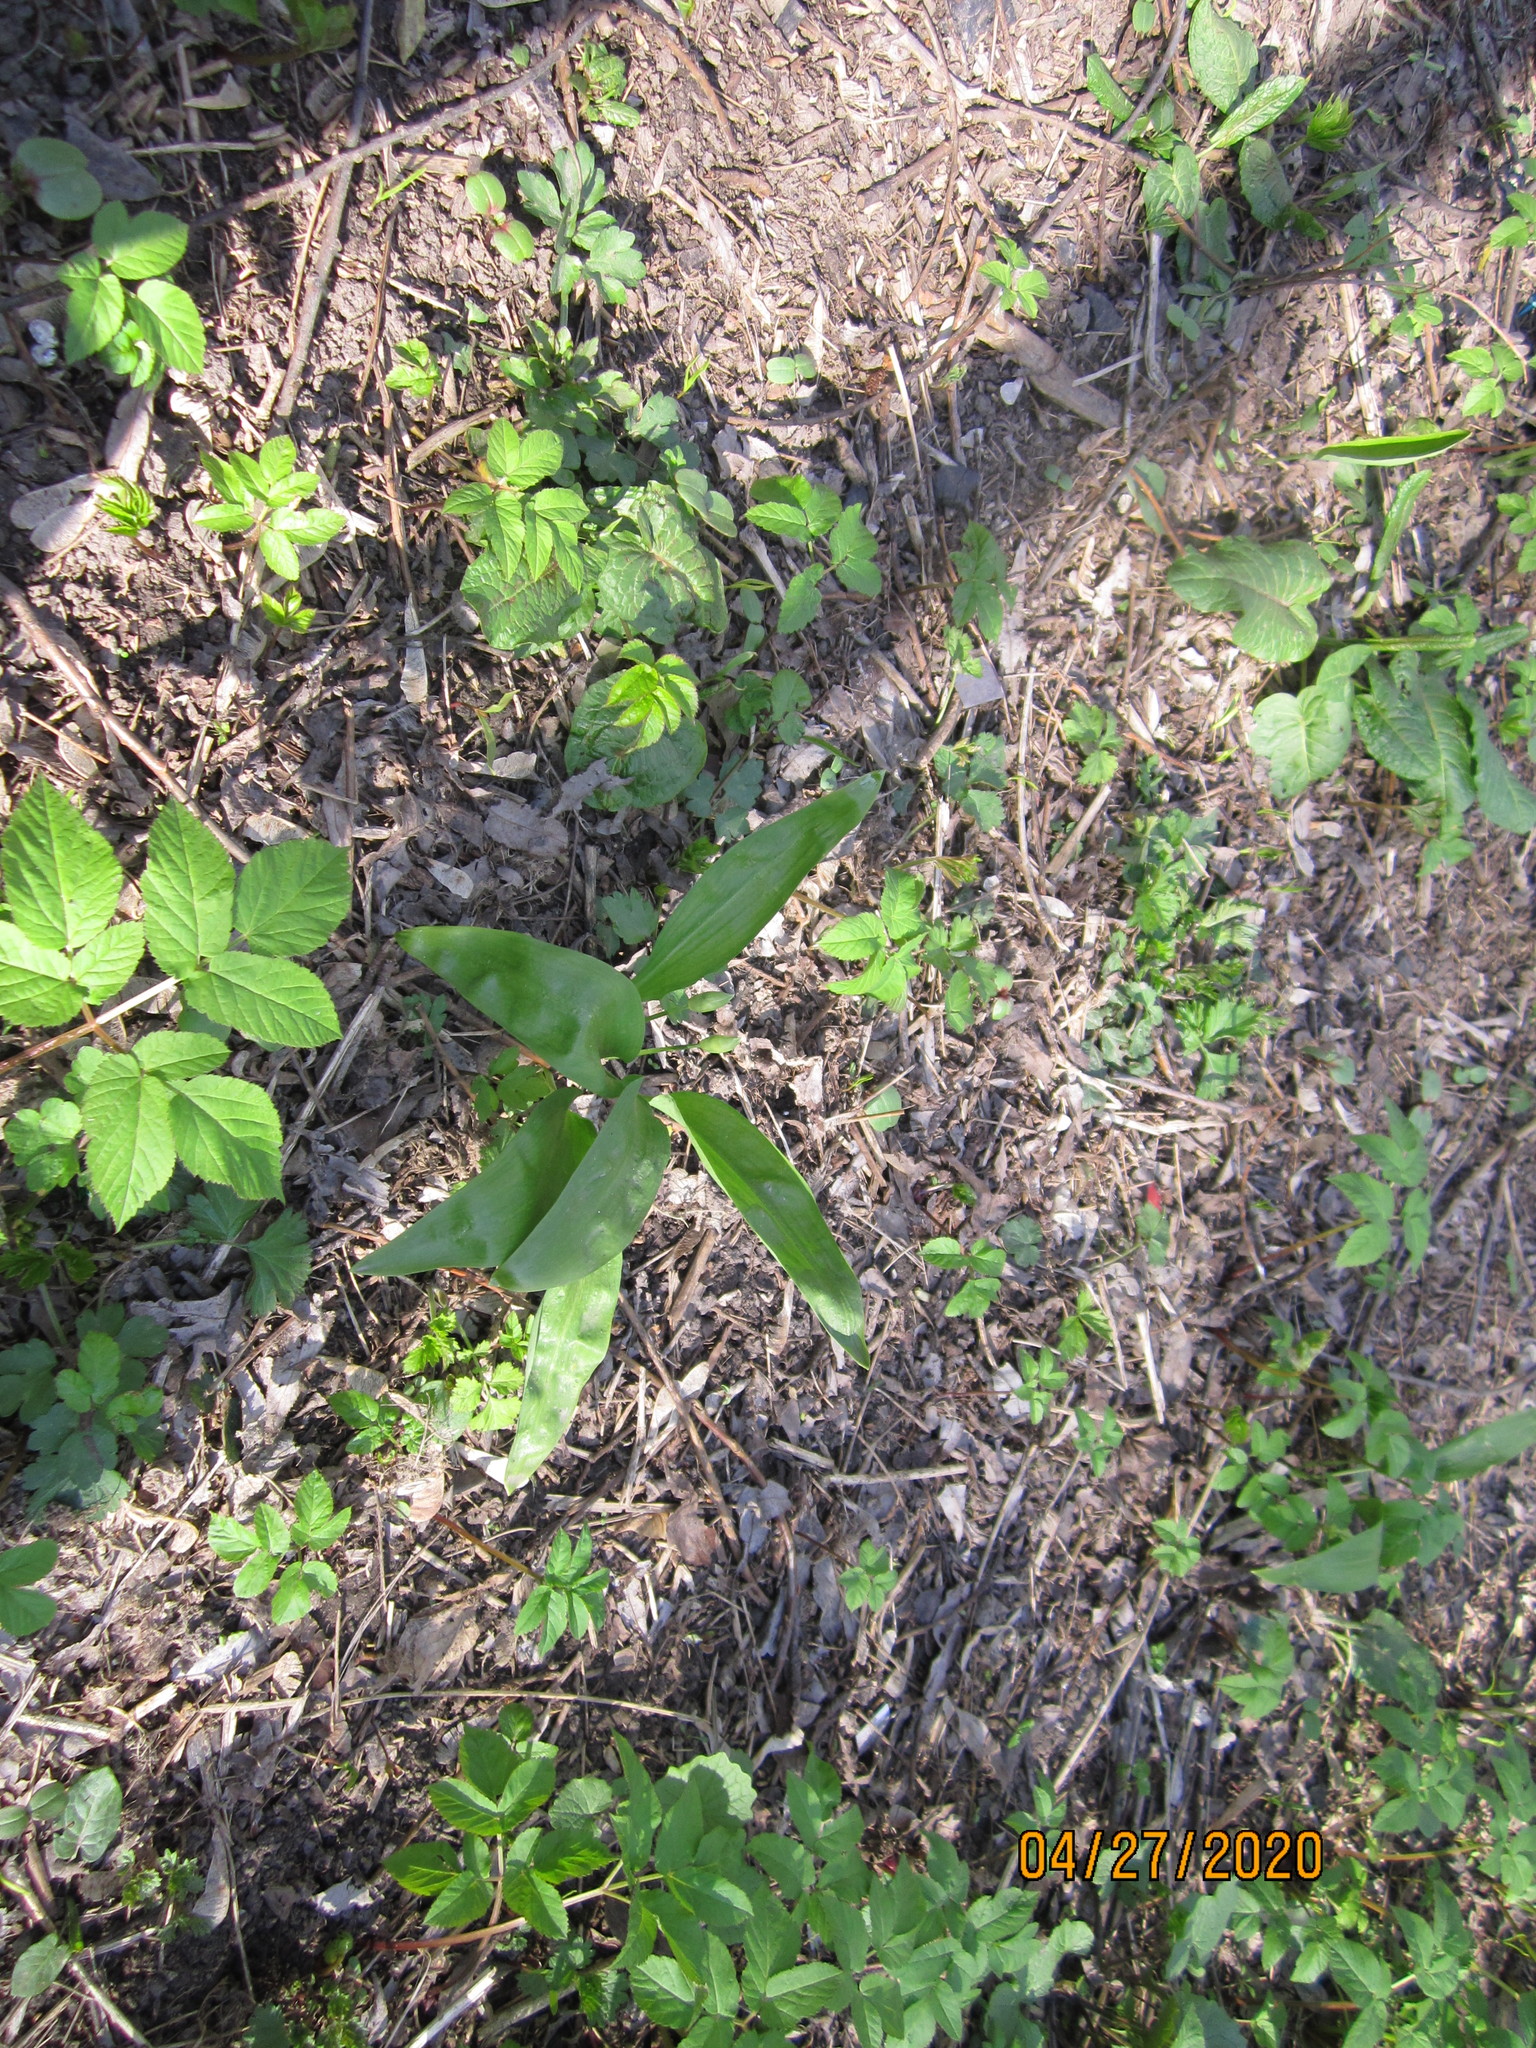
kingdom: Plantae
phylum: Tracheophyta
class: Liliopsida
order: Asparagales
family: Amaryllidaceae
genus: Allium
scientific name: Allium ursinum
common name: Ramsons
